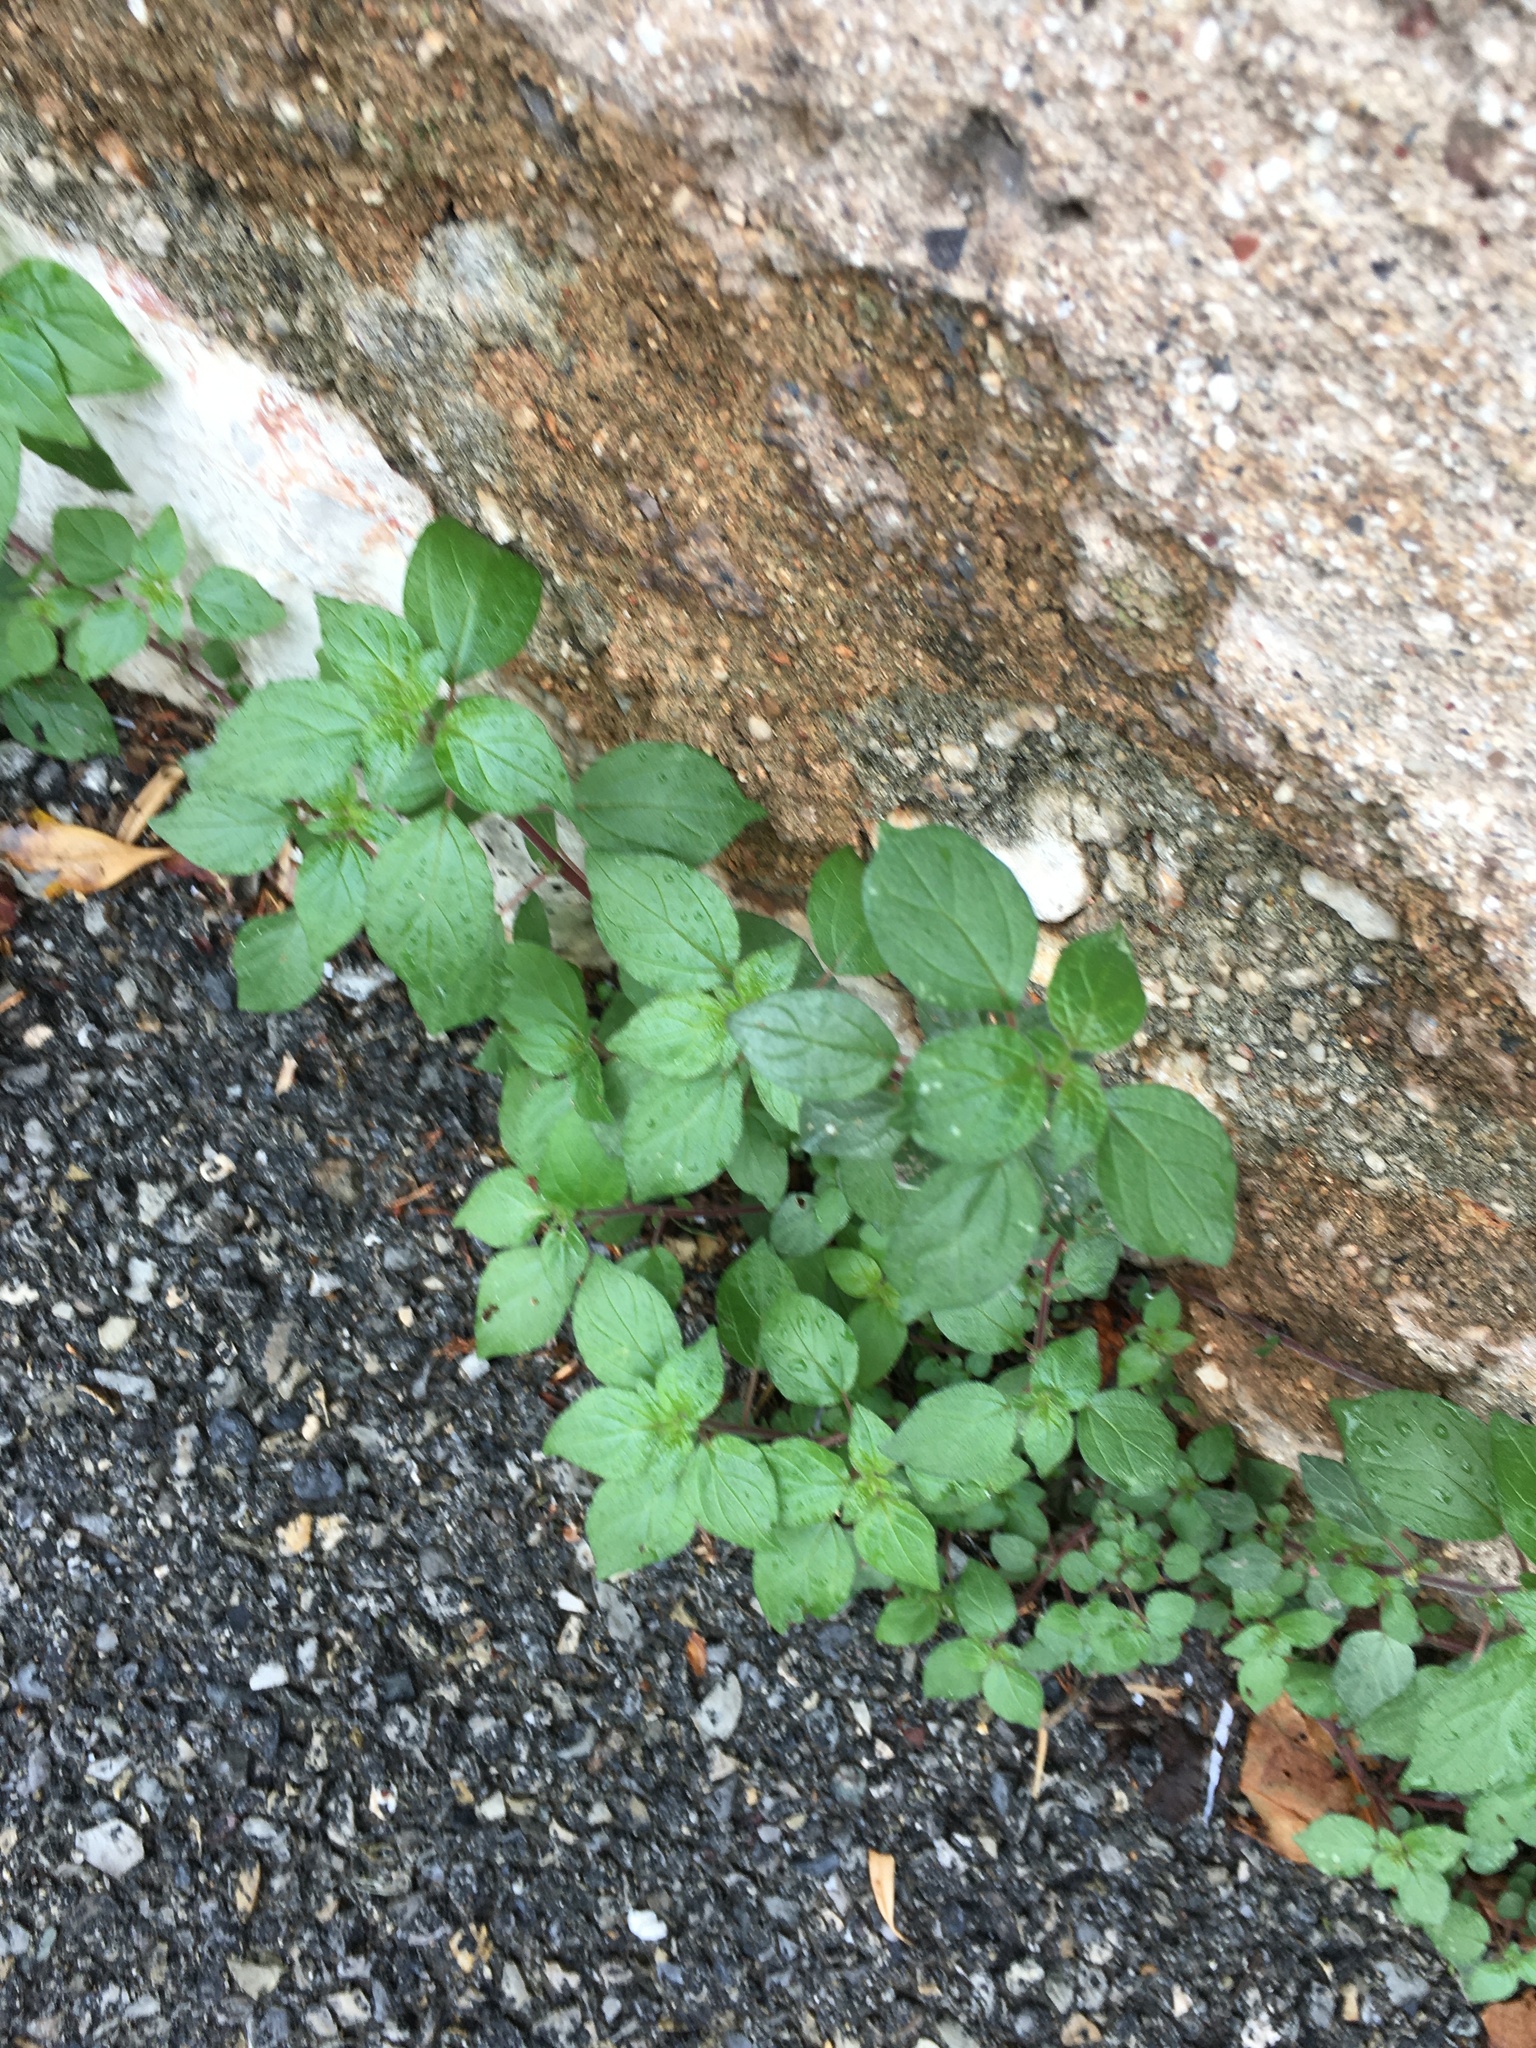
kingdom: Plantae
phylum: Tracheophyta
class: Magnoliopsida
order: Rosales
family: Urticaceae
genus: Parietaria
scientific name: Parietaria judaica
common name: Pellitory-of-the-wall
